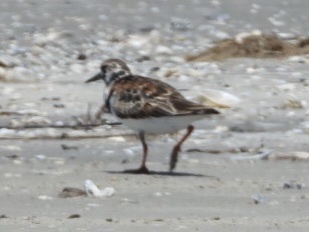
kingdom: Animalia
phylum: Chordata
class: Aves
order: Charadriiformes
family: Scolopacidae
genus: Arenaria
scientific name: Arenaria interpres
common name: Ruddy turnstone
